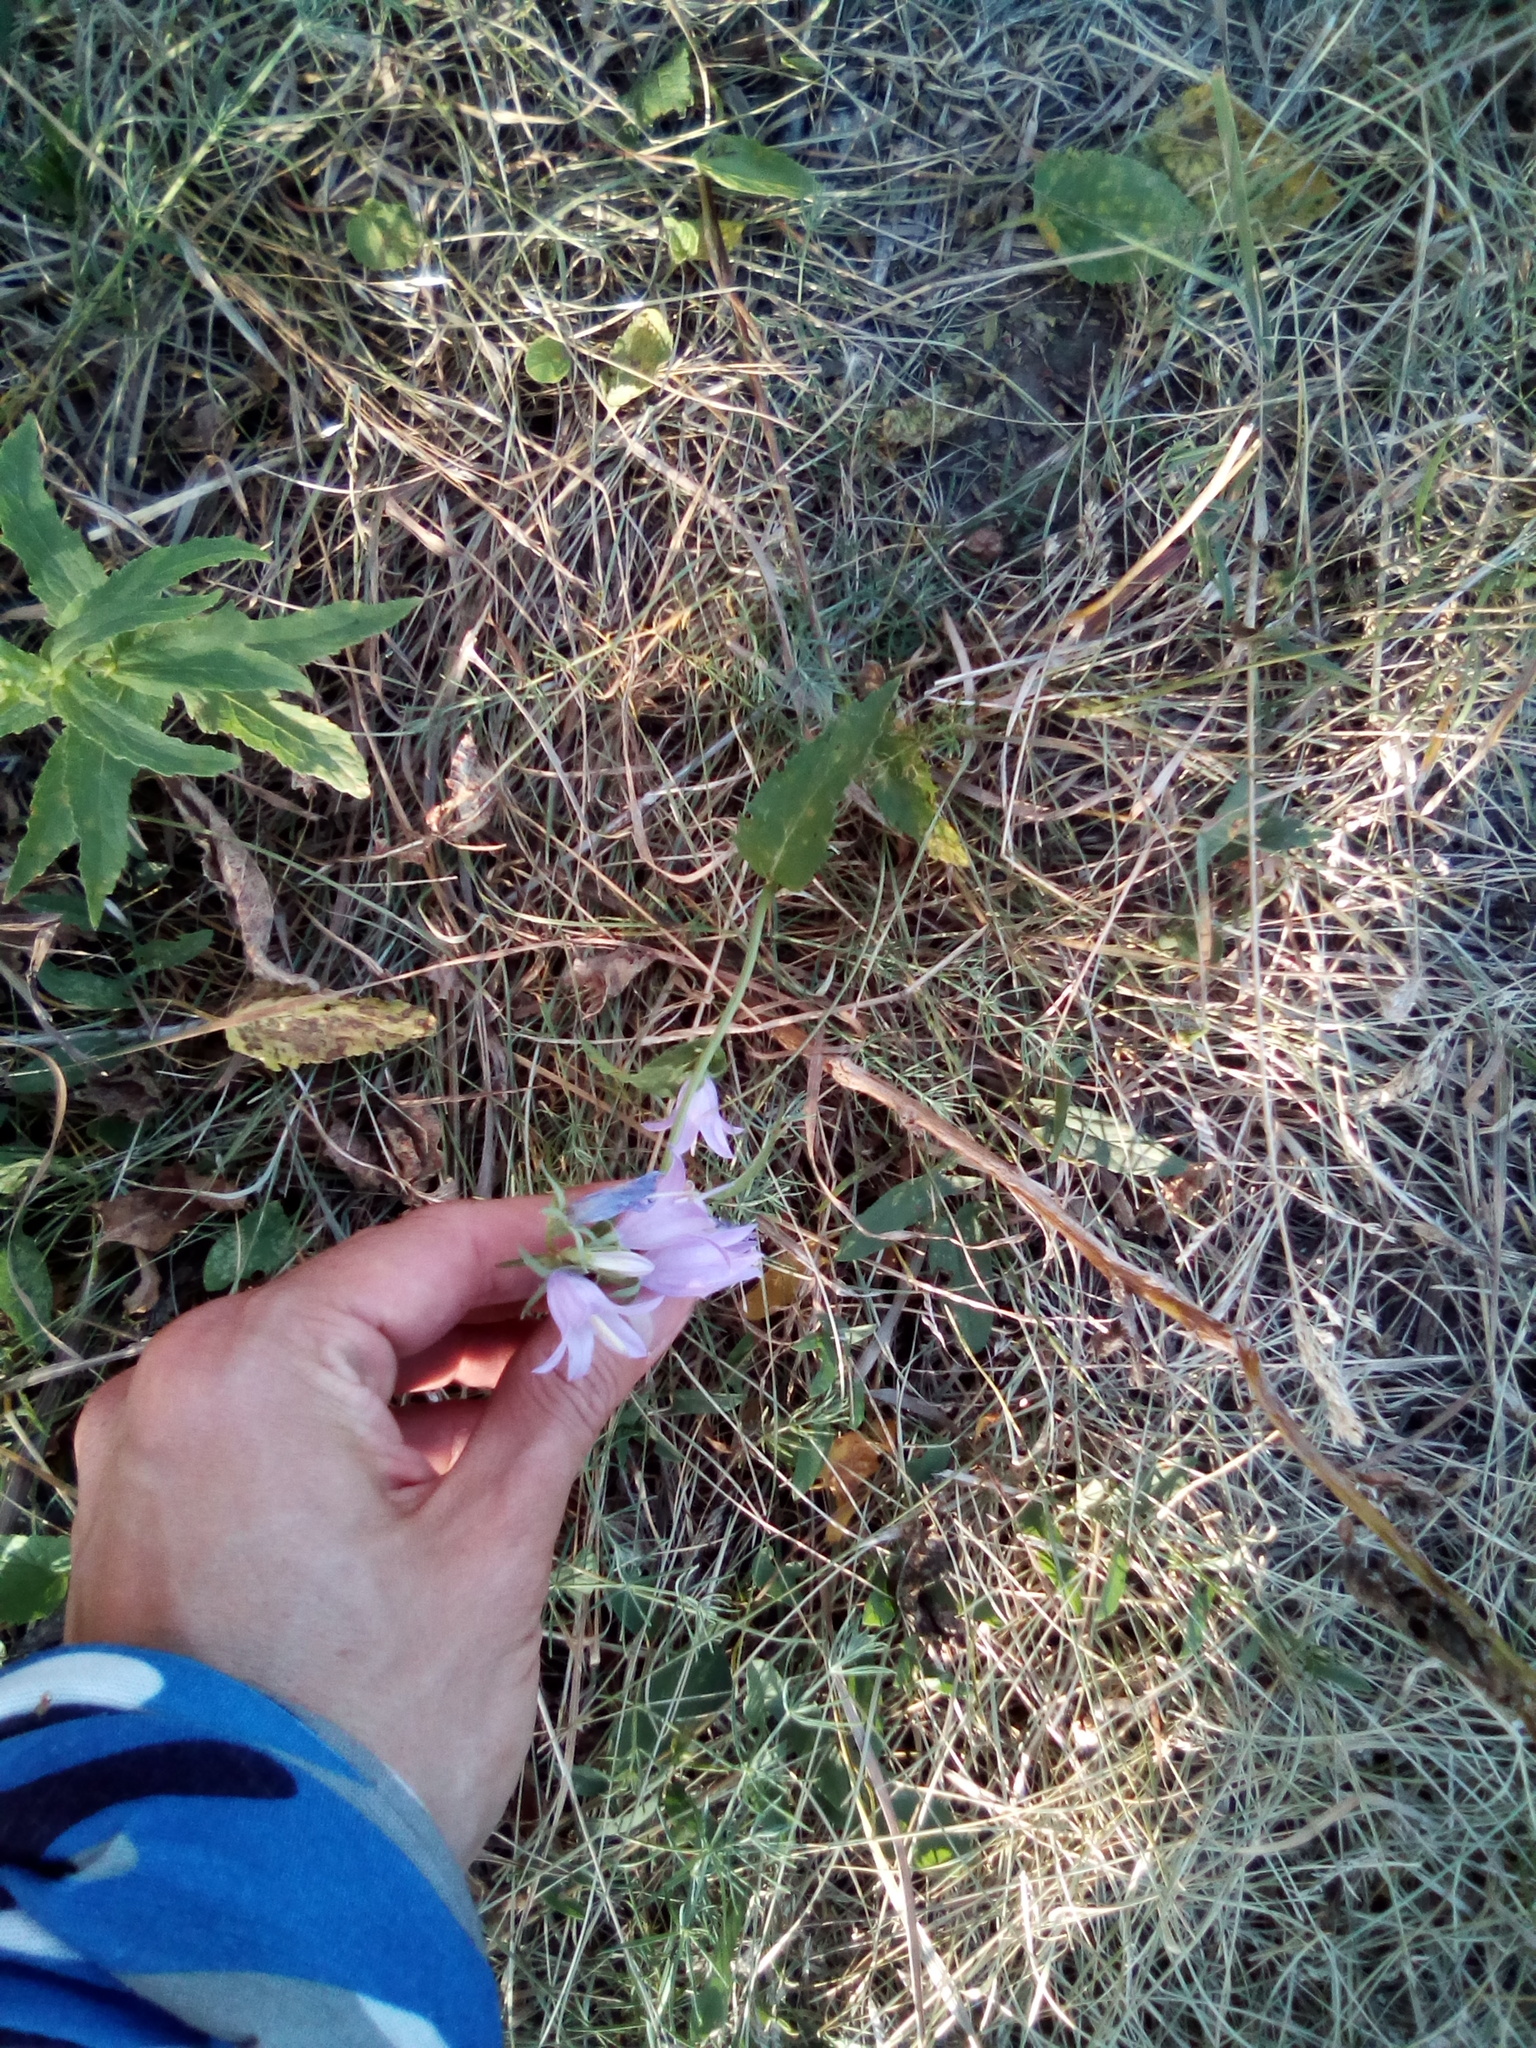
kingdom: Plantae
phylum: Tracheophyta
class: Magnoliopsida
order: Asterales
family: Campanulaceae
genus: Campanula
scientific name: Campanula rapunculoides
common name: Creeping bellflower
